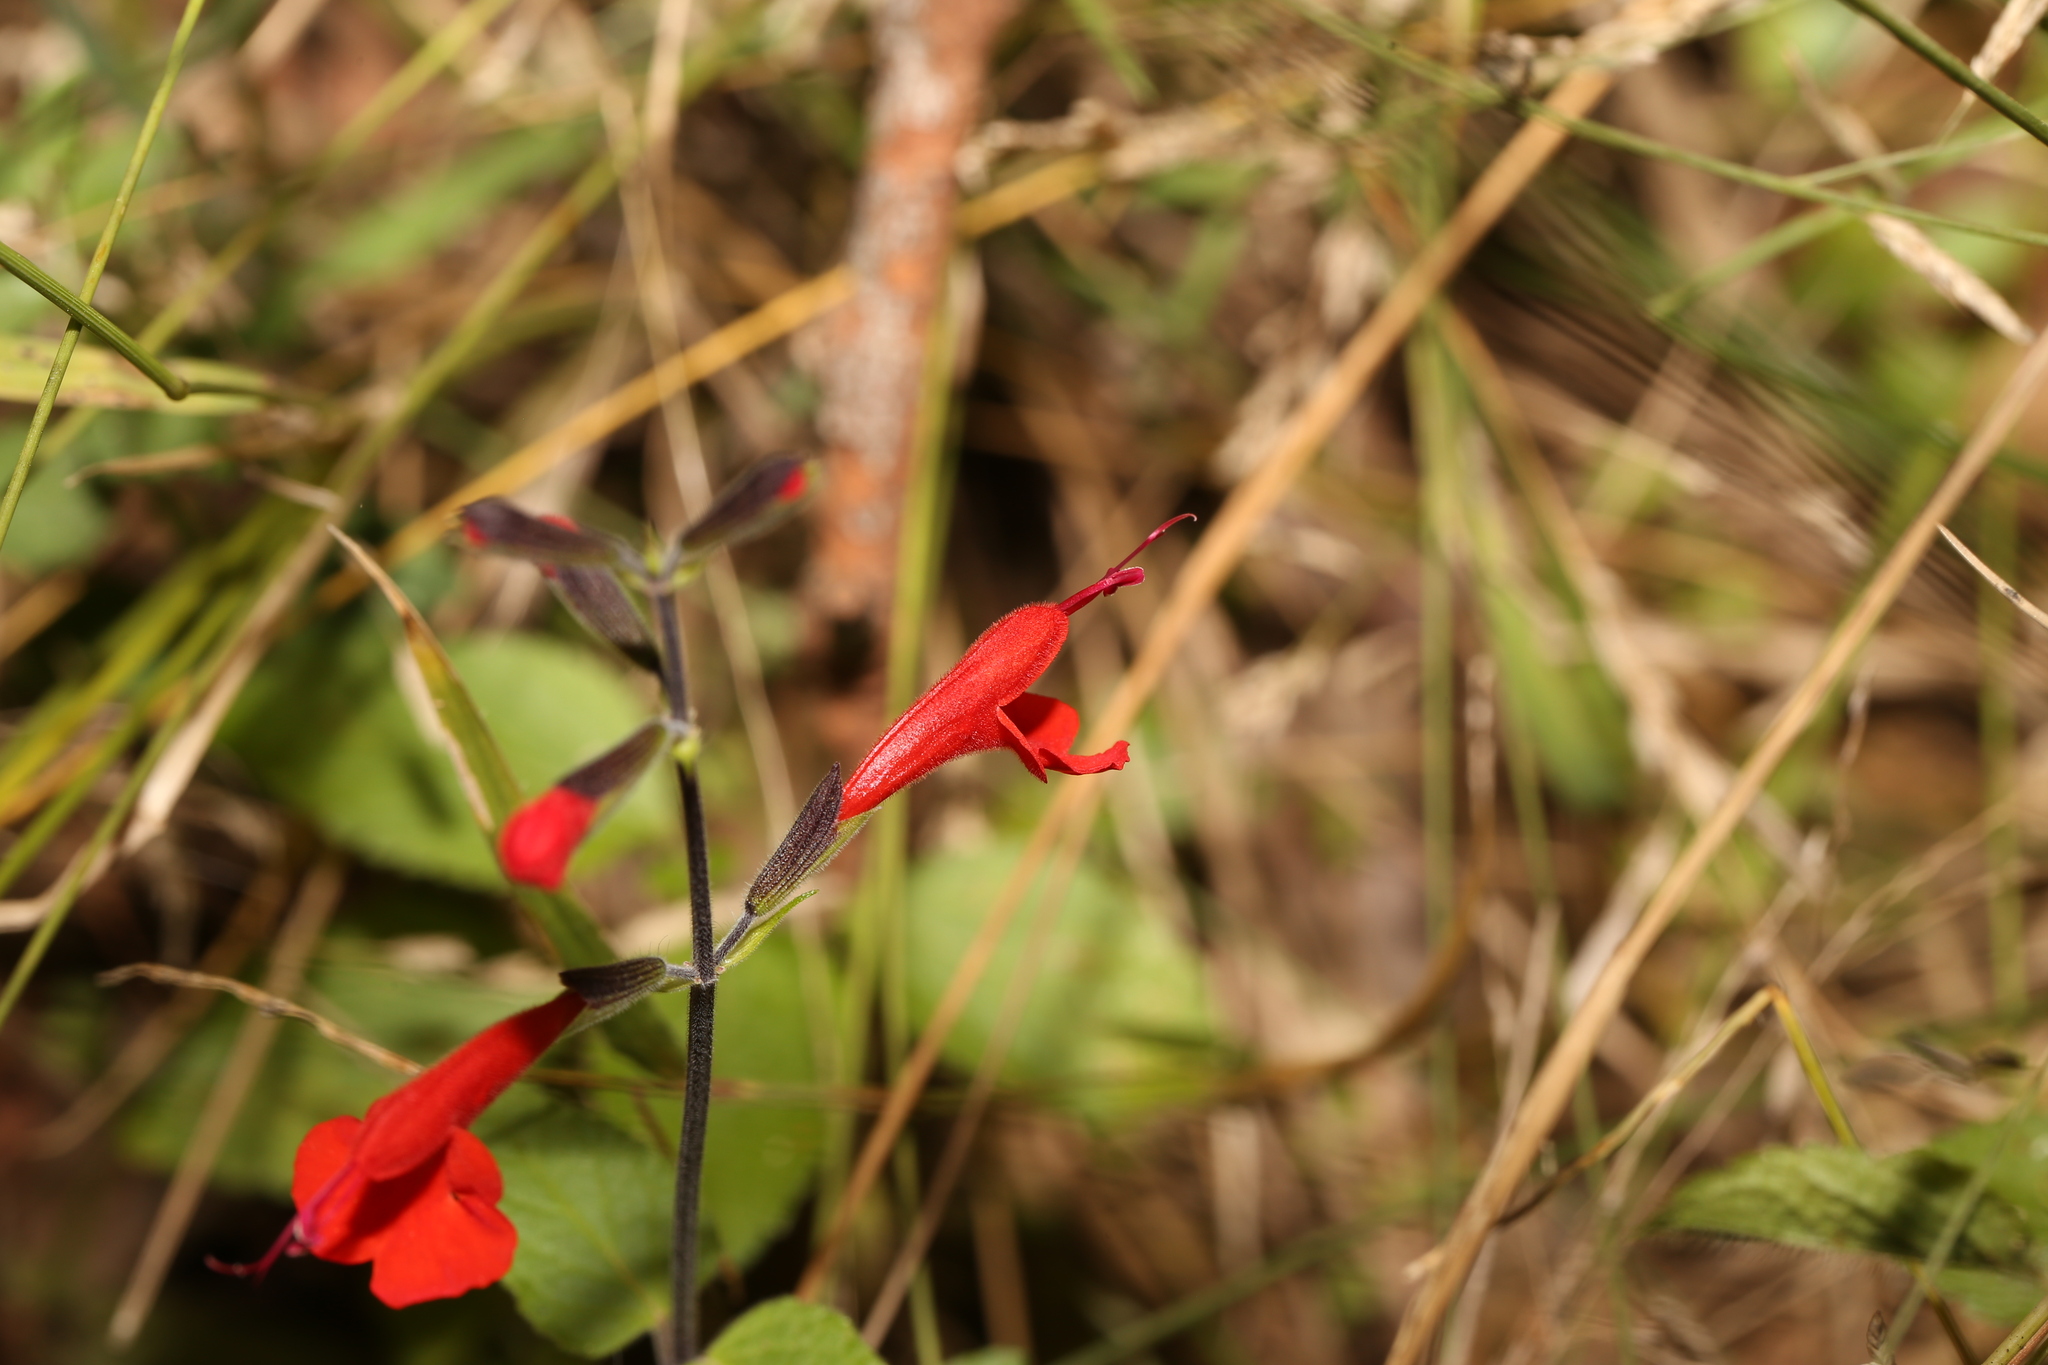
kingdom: Plantae
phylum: Tracheophyta
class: Magnoliopsida
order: Lamiales
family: Lamiaceae
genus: Salvia
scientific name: Salvia coccinea
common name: Blood sage
